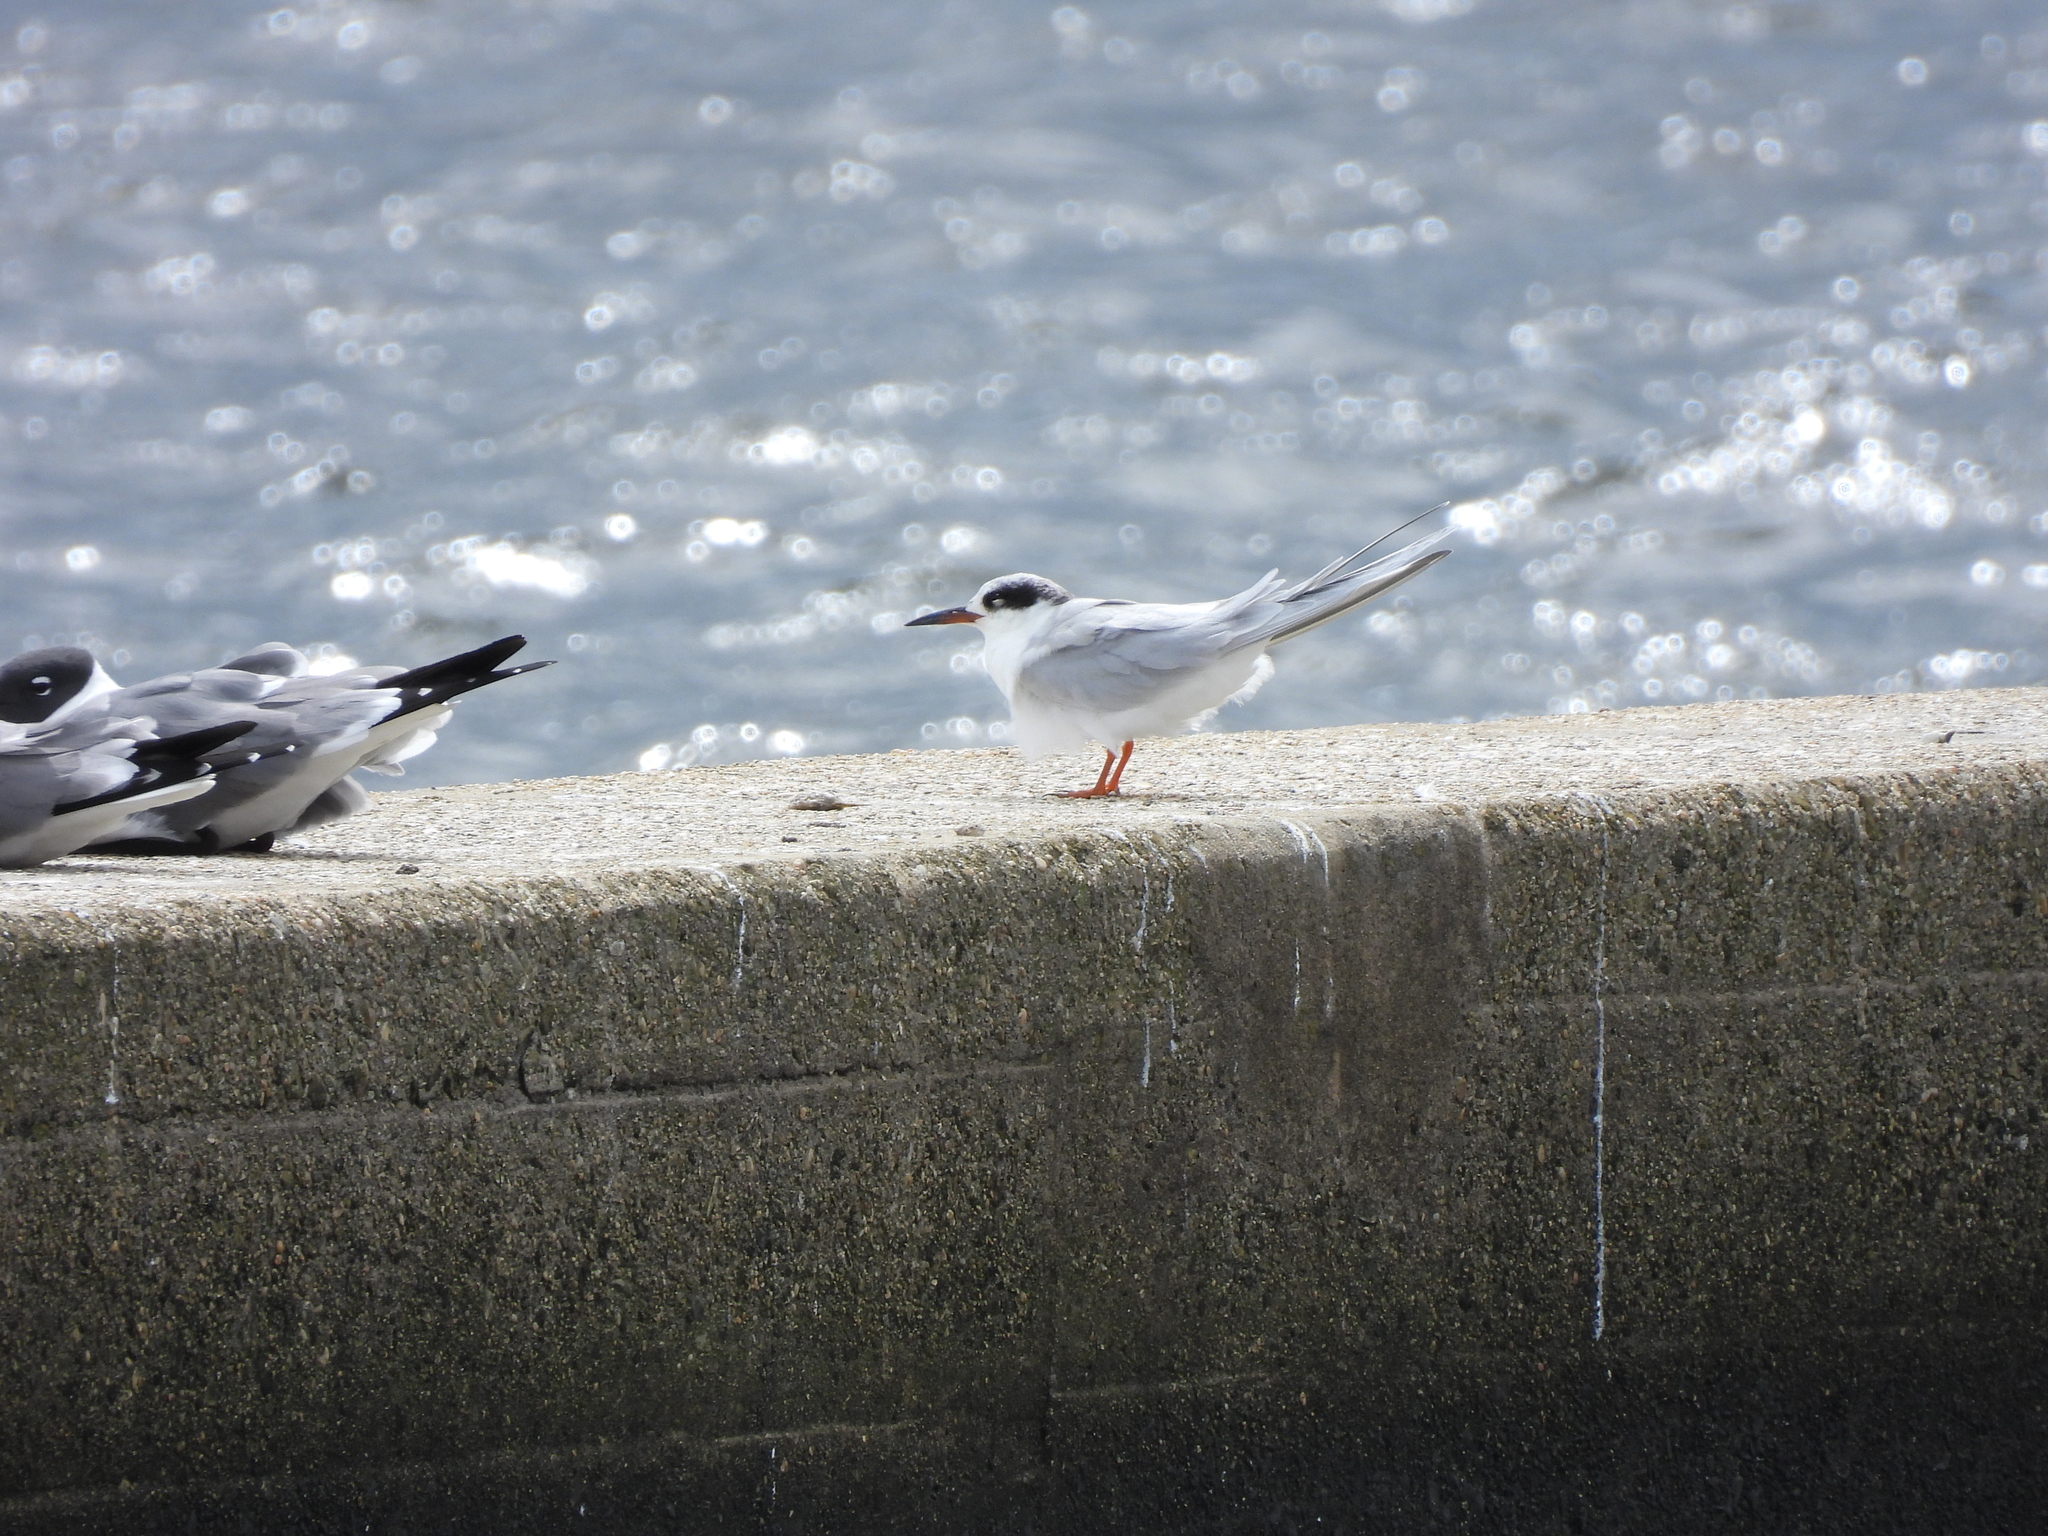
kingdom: Animalia
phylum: Chordata
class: Aves
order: Charadriiformes
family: Laridae
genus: Sterna
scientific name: Sterna forsteri
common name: Forster's tern
